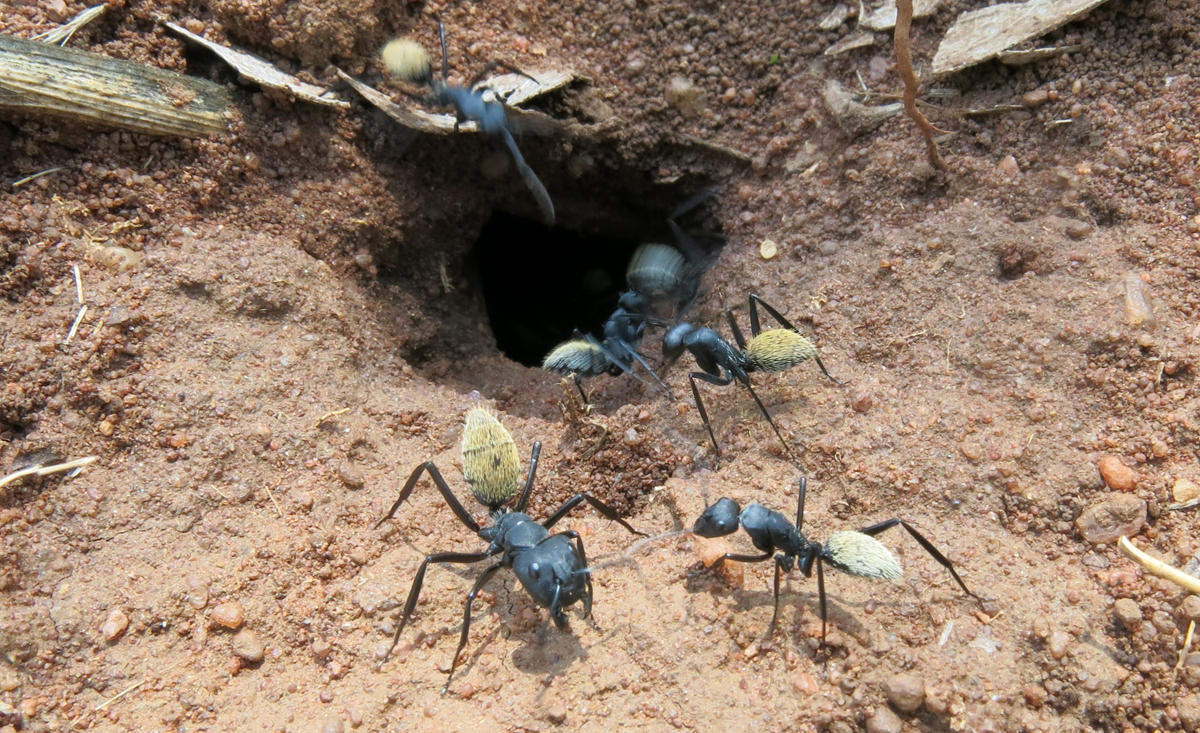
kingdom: Animalia
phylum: Arthropoda
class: Insecta
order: Hymenoptera
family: Formicidae
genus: Camponotus
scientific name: Camponotus fulvopilosus
